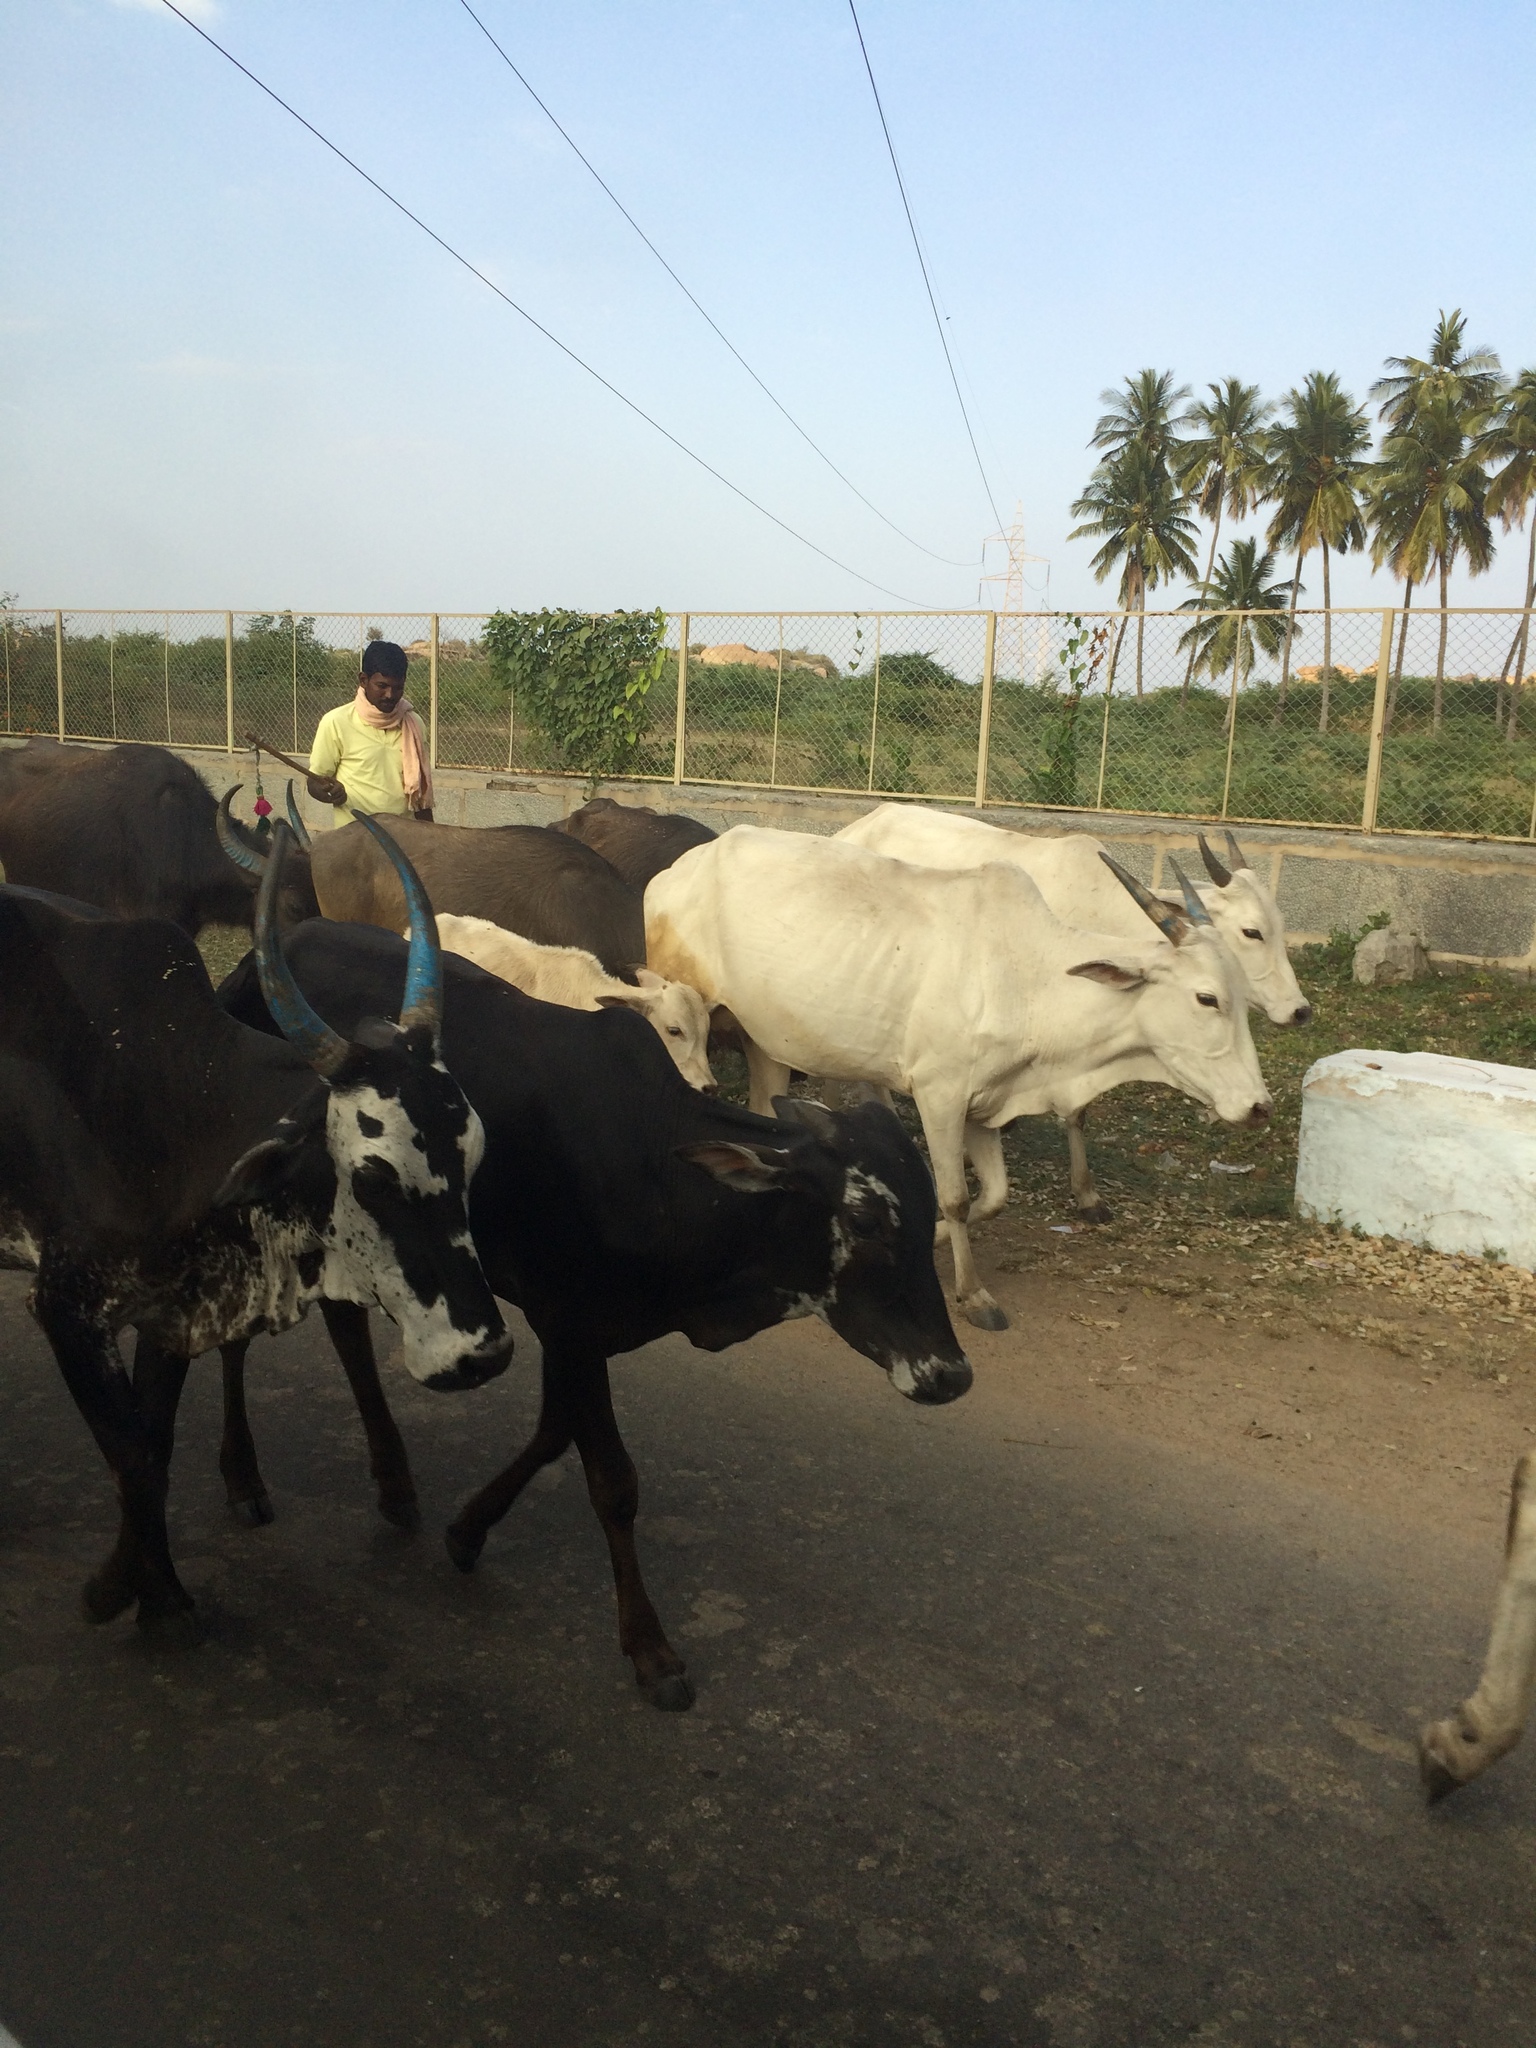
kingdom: Animalia
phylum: Chordata
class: Mammalia
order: Artiodactyla
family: Bovidae
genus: Bos
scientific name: Bos taurus
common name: Domesticated cattle
